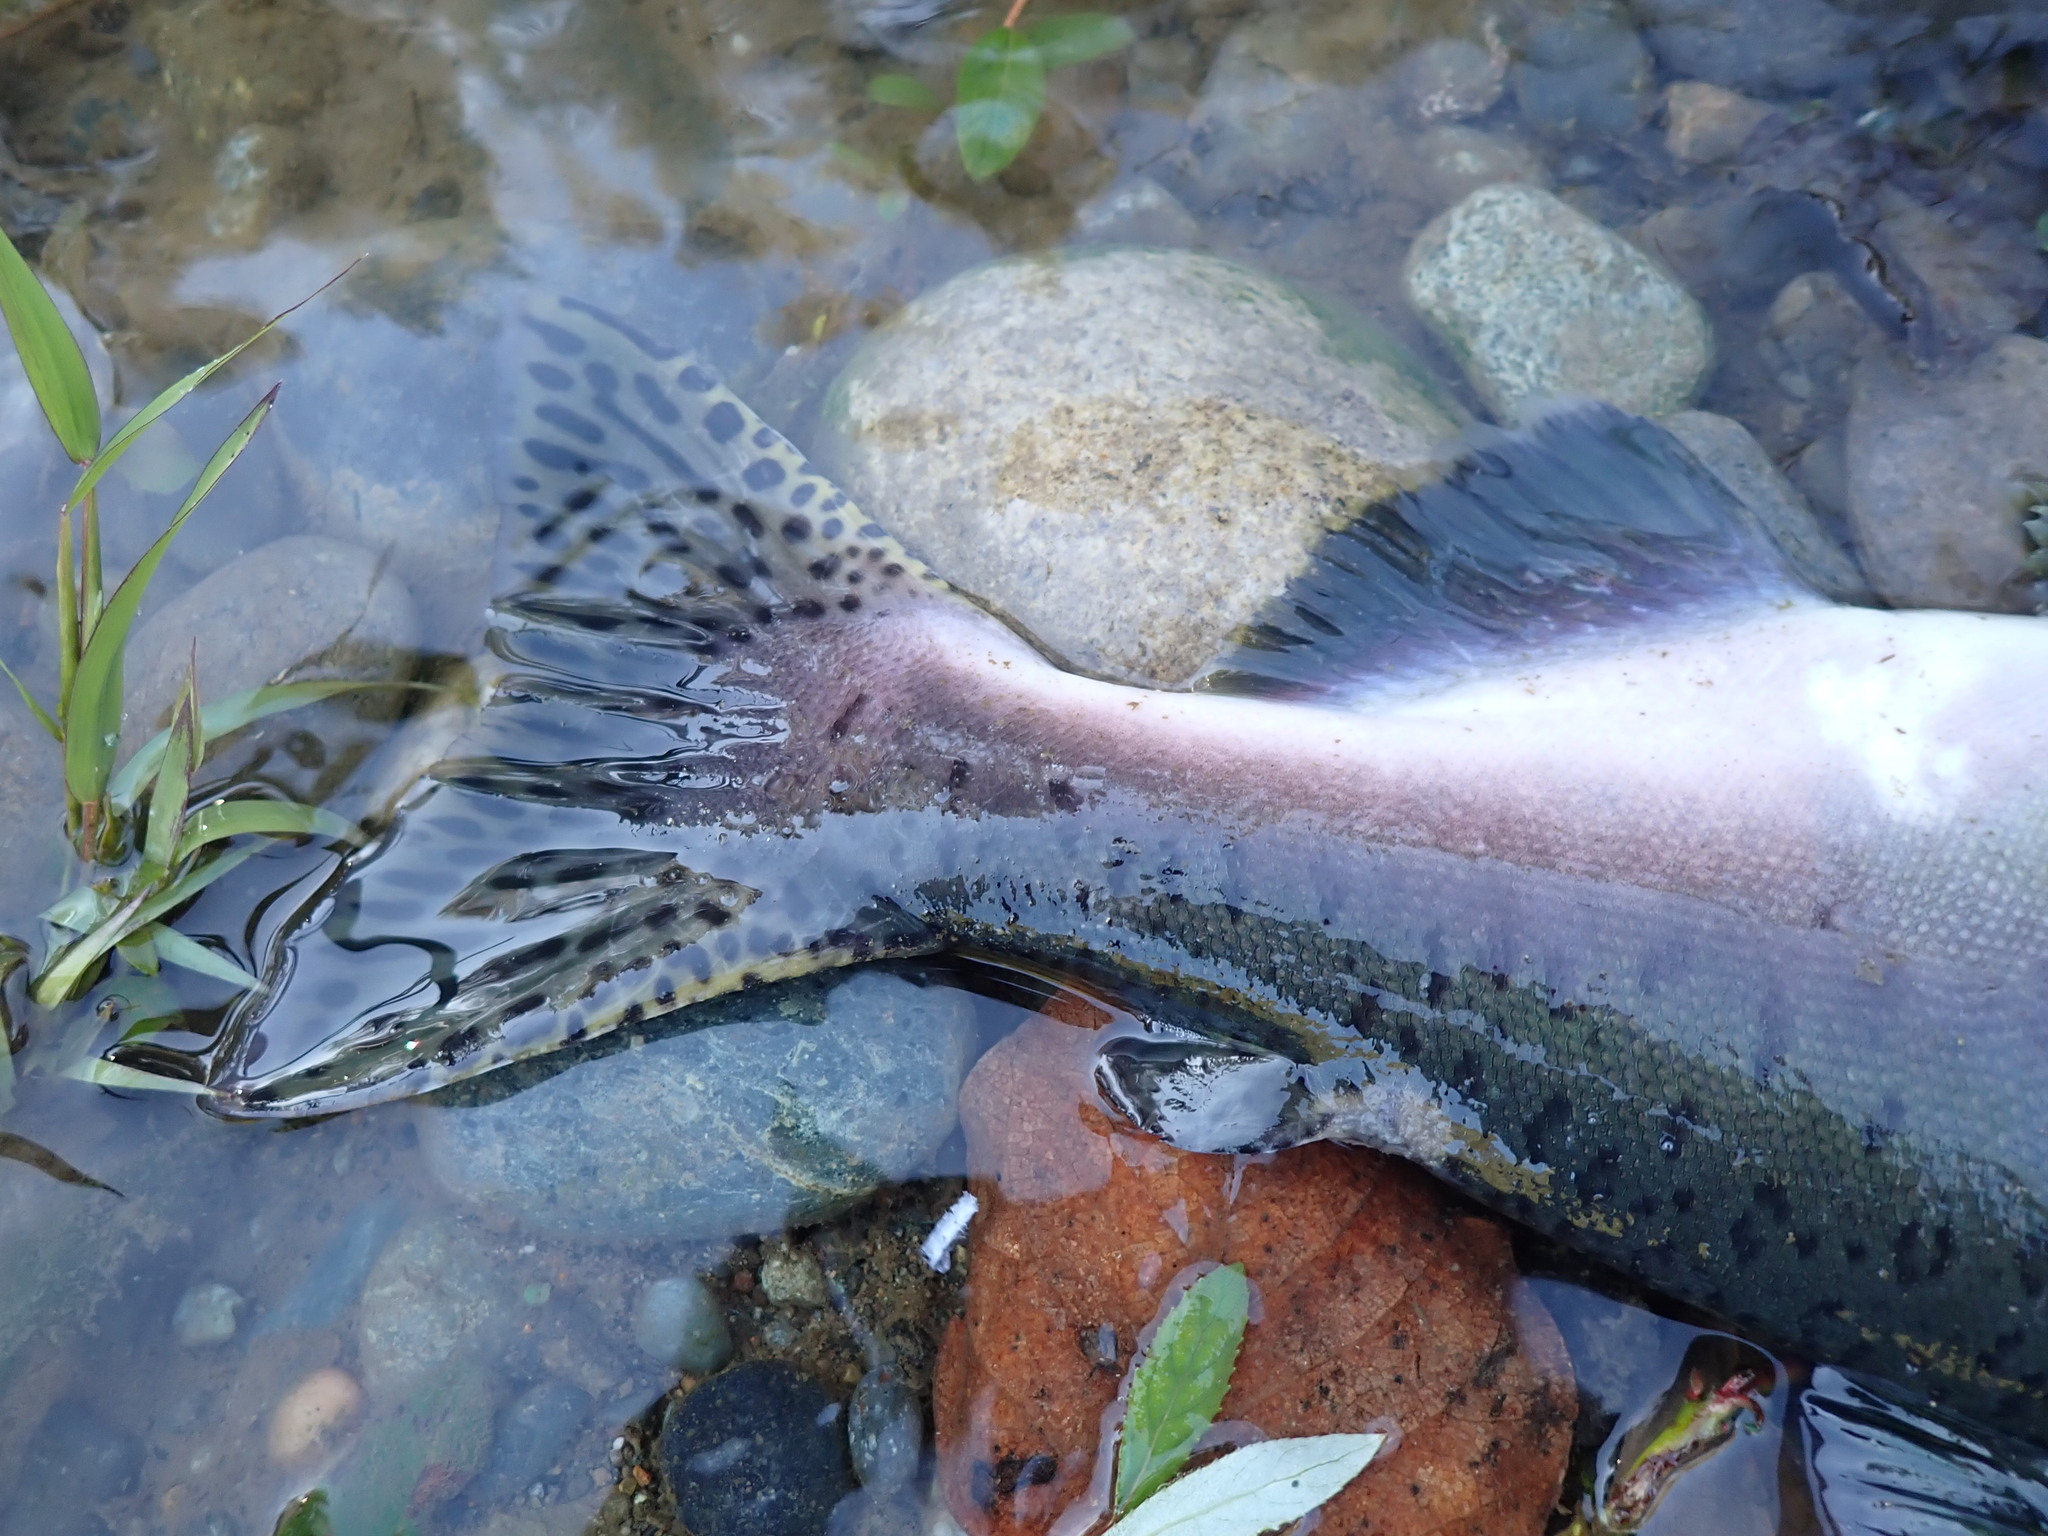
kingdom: Animalia
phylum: Chordata
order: Salmoniformes
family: Salmonidae
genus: Oncorhynchus
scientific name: Oncorhynchus gorbuscha
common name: Humpback salmon
